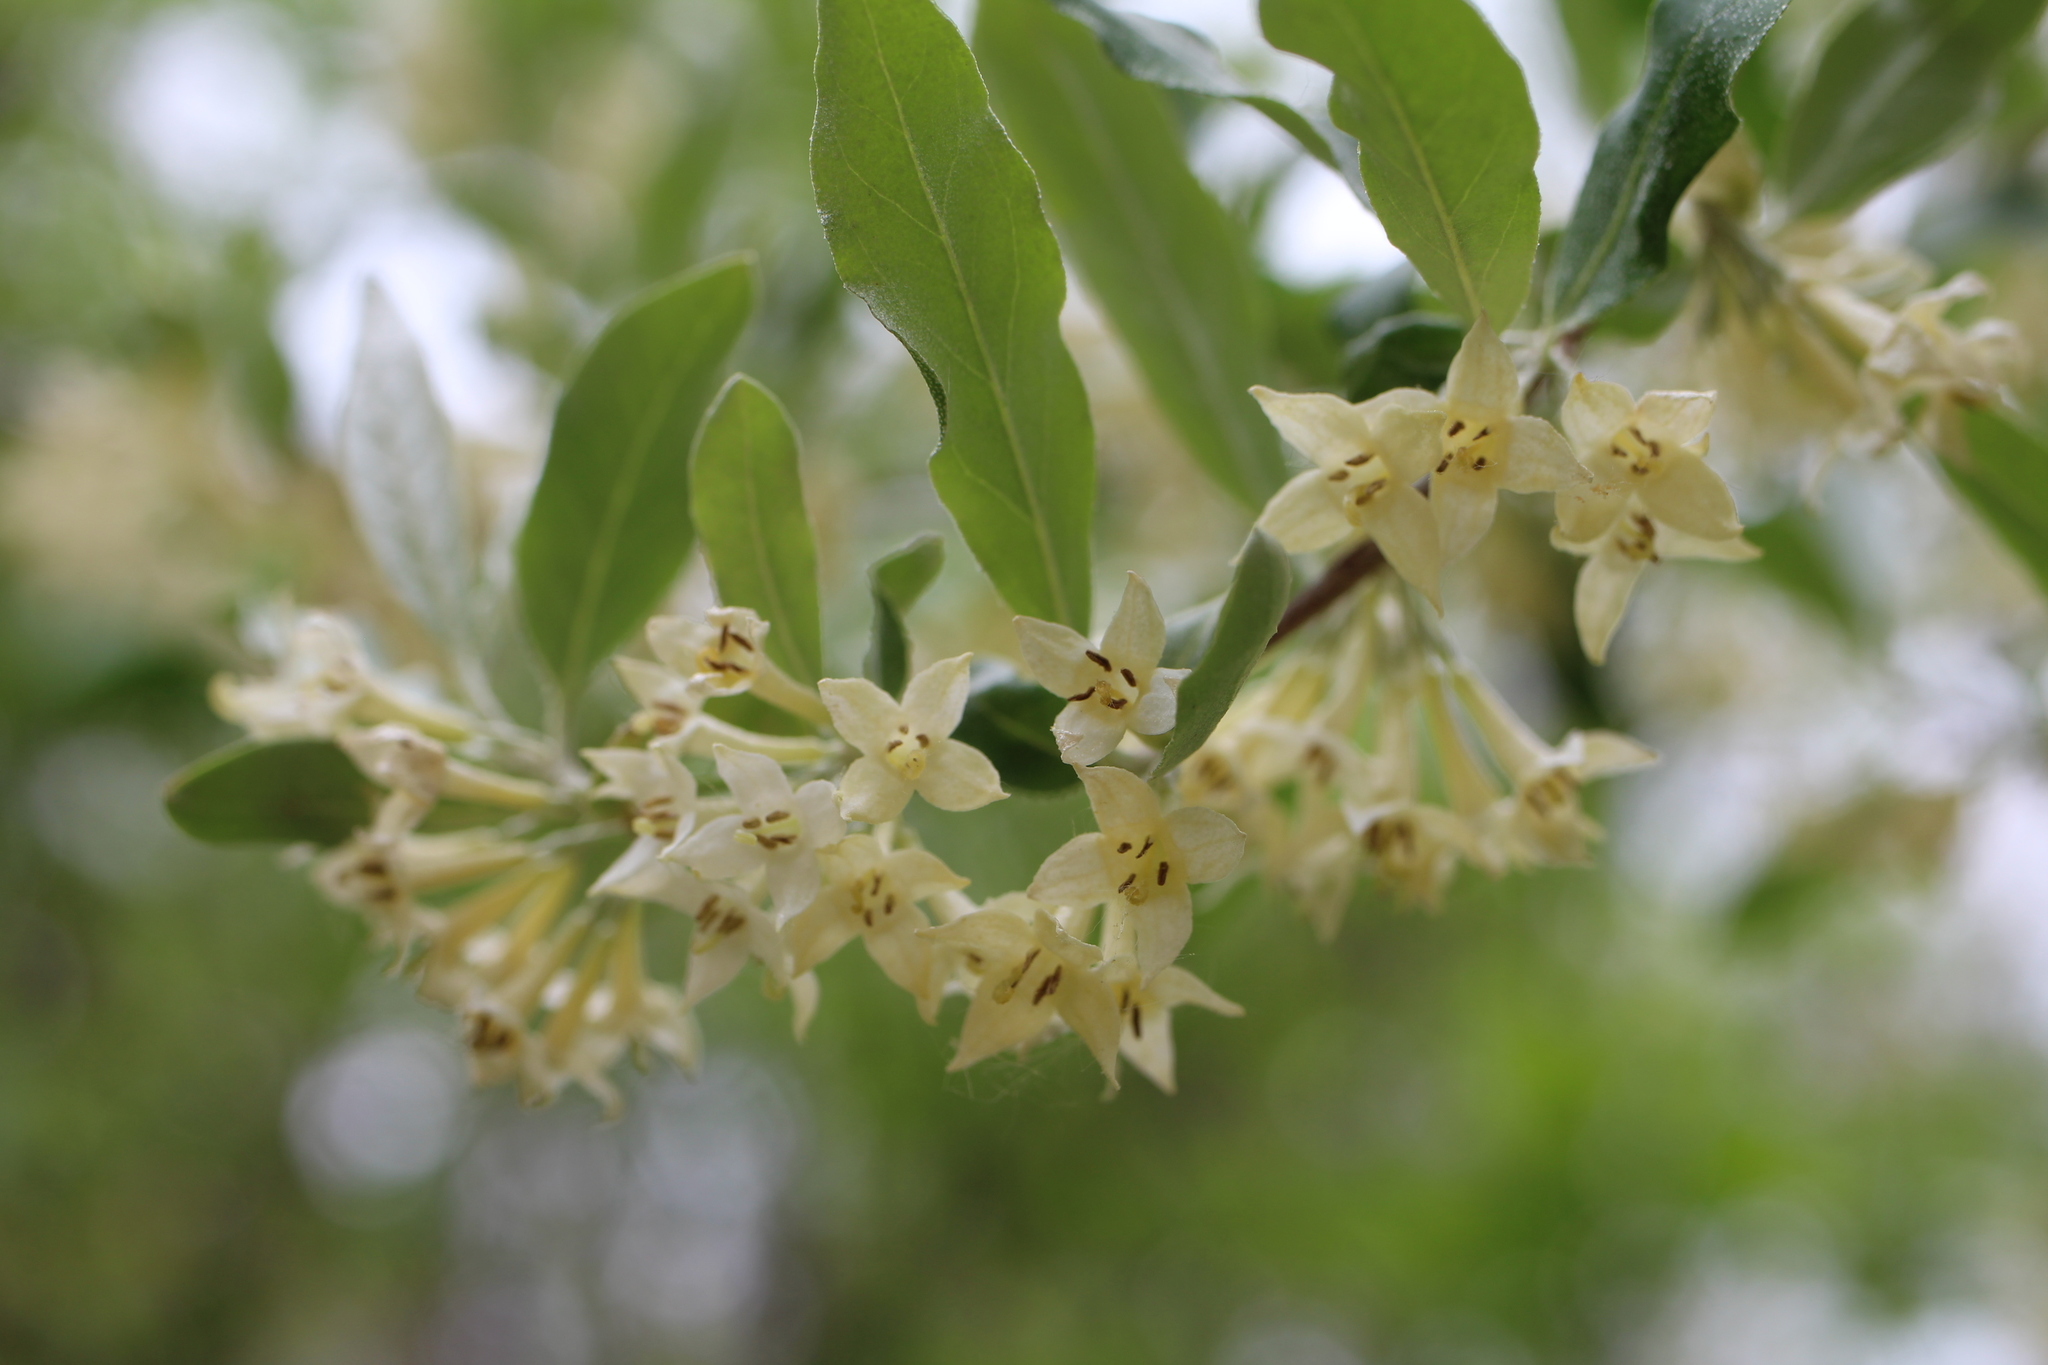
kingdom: Plantae
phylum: Tracheophyta
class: Magnoliopsida
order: Rosales
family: Elaeagnaceae
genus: Elaeagnus
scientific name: Elaeagnus umbellata
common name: Autumn olive
